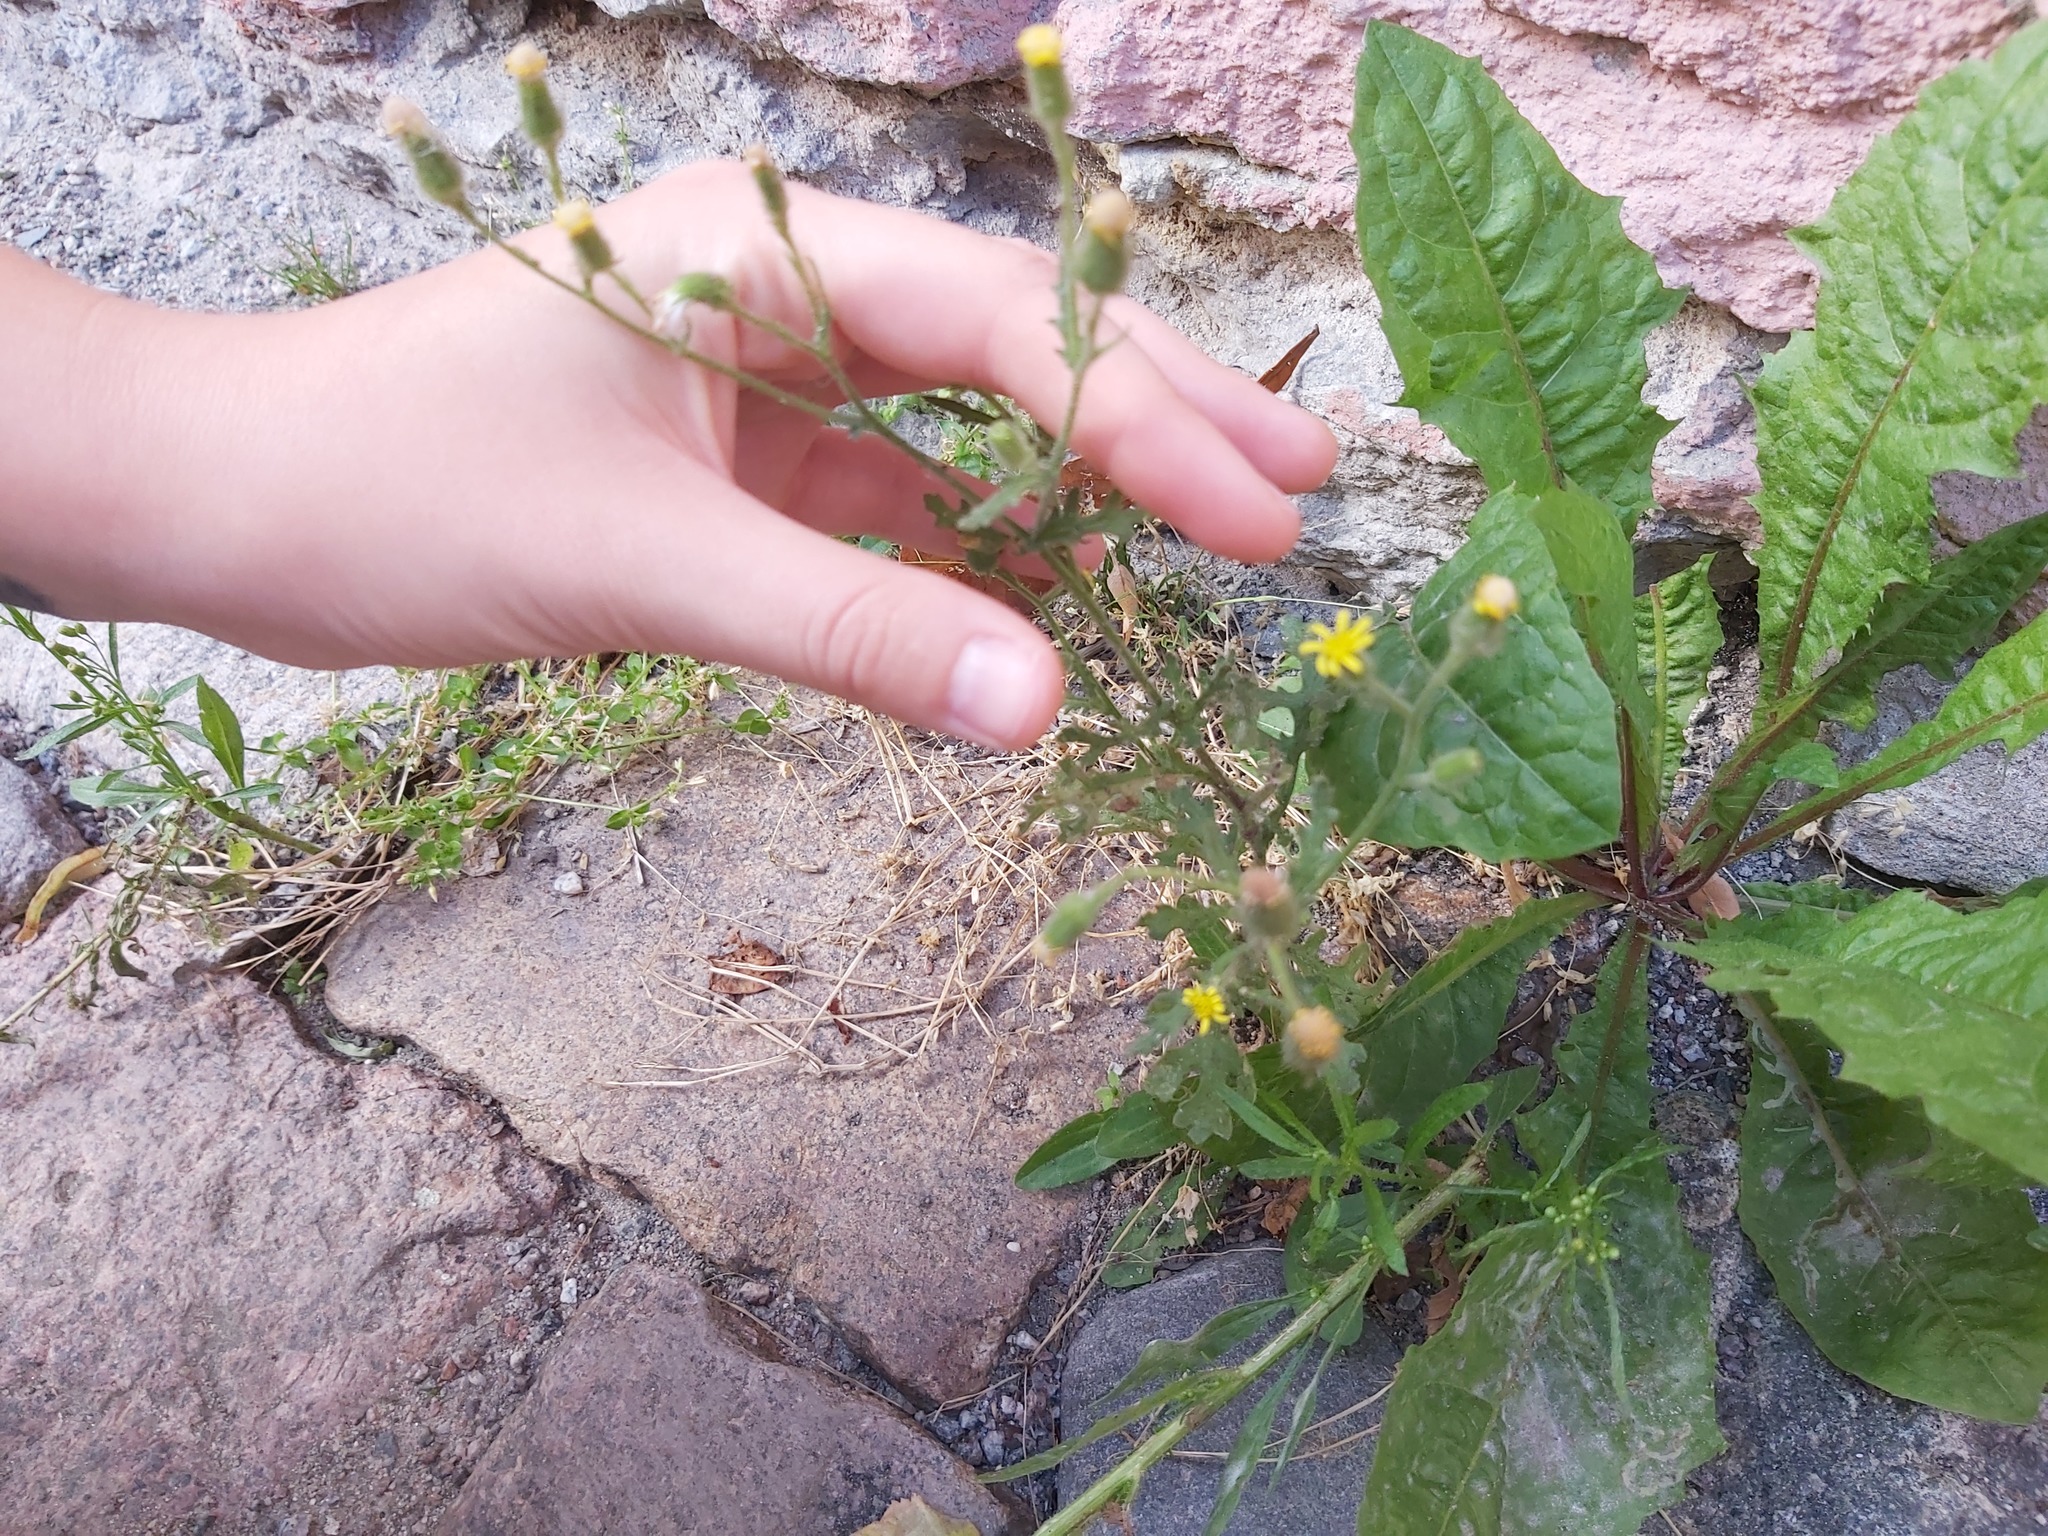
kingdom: Plantae
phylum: Tracheophyta
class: Magnoliopsida
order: Asterales
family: Asteraceae
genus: Senecio
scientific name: Senecio viscosus
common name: Sticky groundsel
